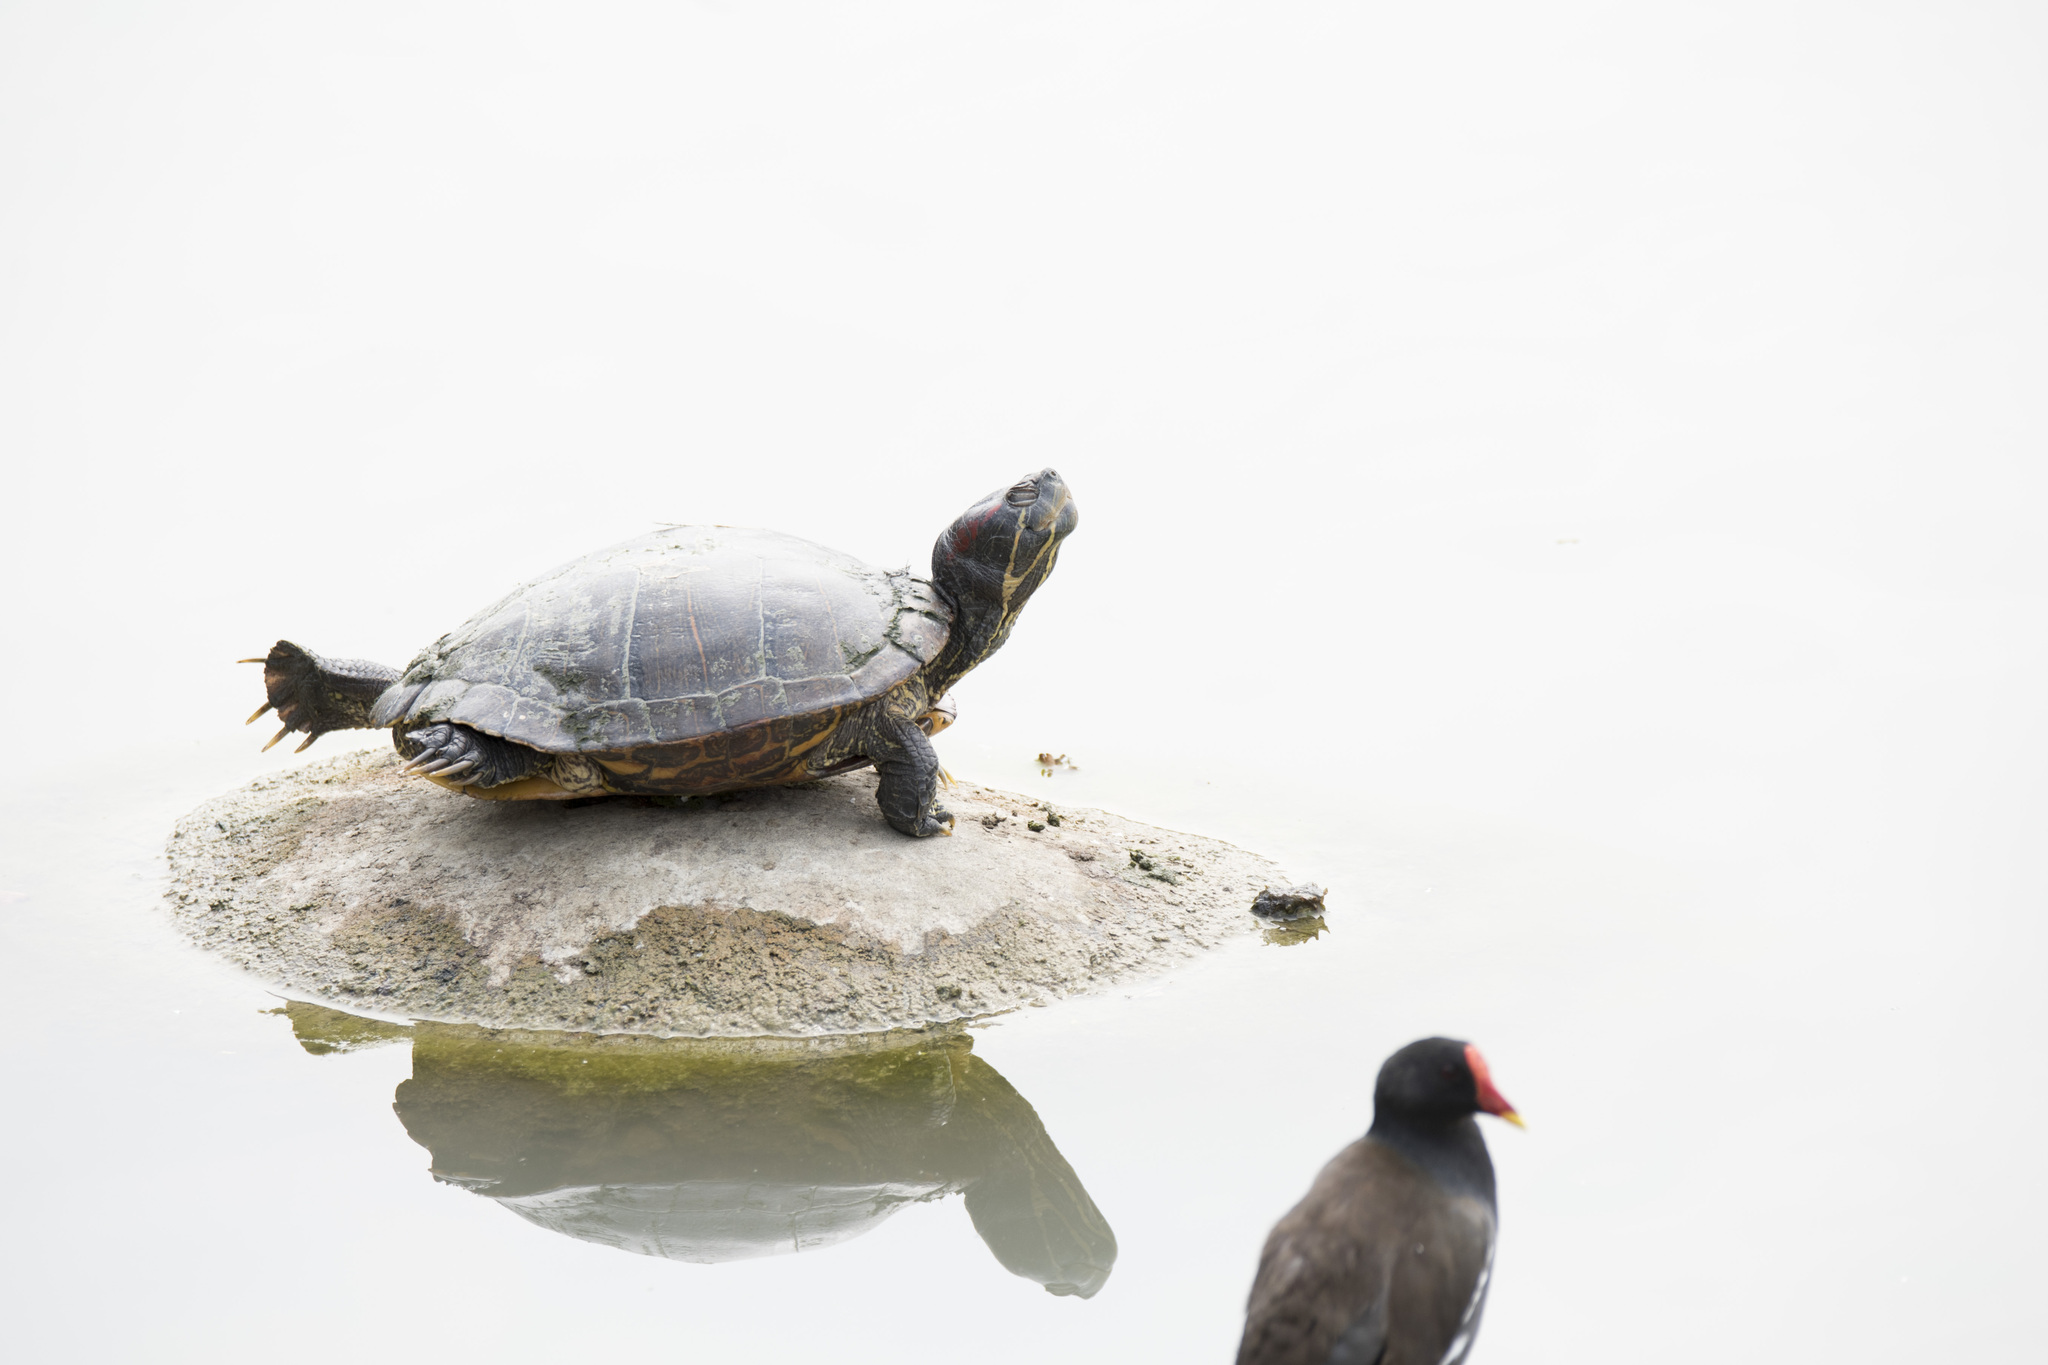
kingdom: Animalia
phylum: Chordata
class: Testudines
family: Emydidae
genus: Trachemys
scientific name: Trachemys scripta
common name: Slider
